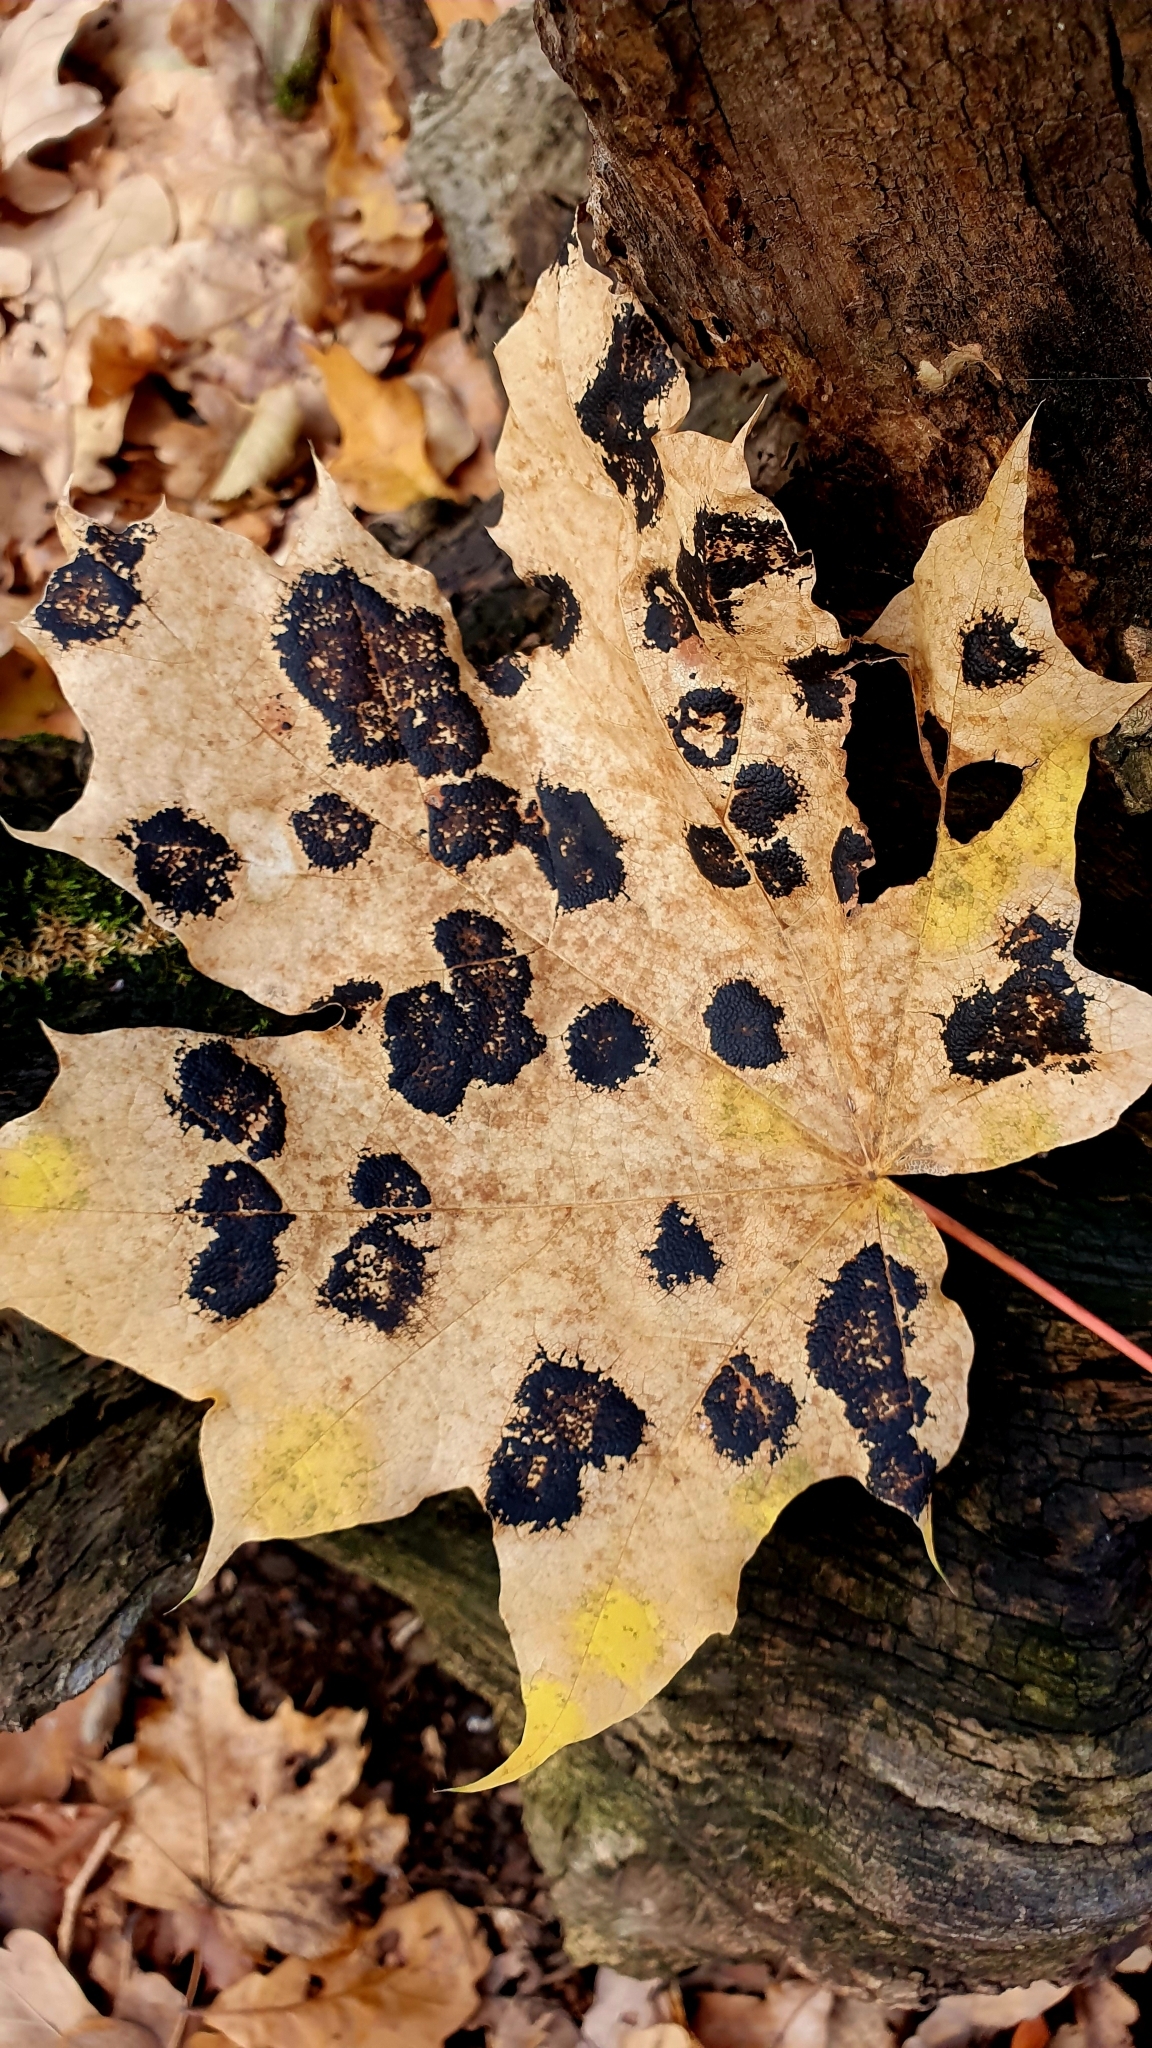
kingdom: Fungi
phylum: Ascomycota
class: Leotiomycetes
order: Rhytismatales
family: Rhytismataceae
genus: Rhytisma
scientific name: Rhytisma acerinum
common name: European tar spot
